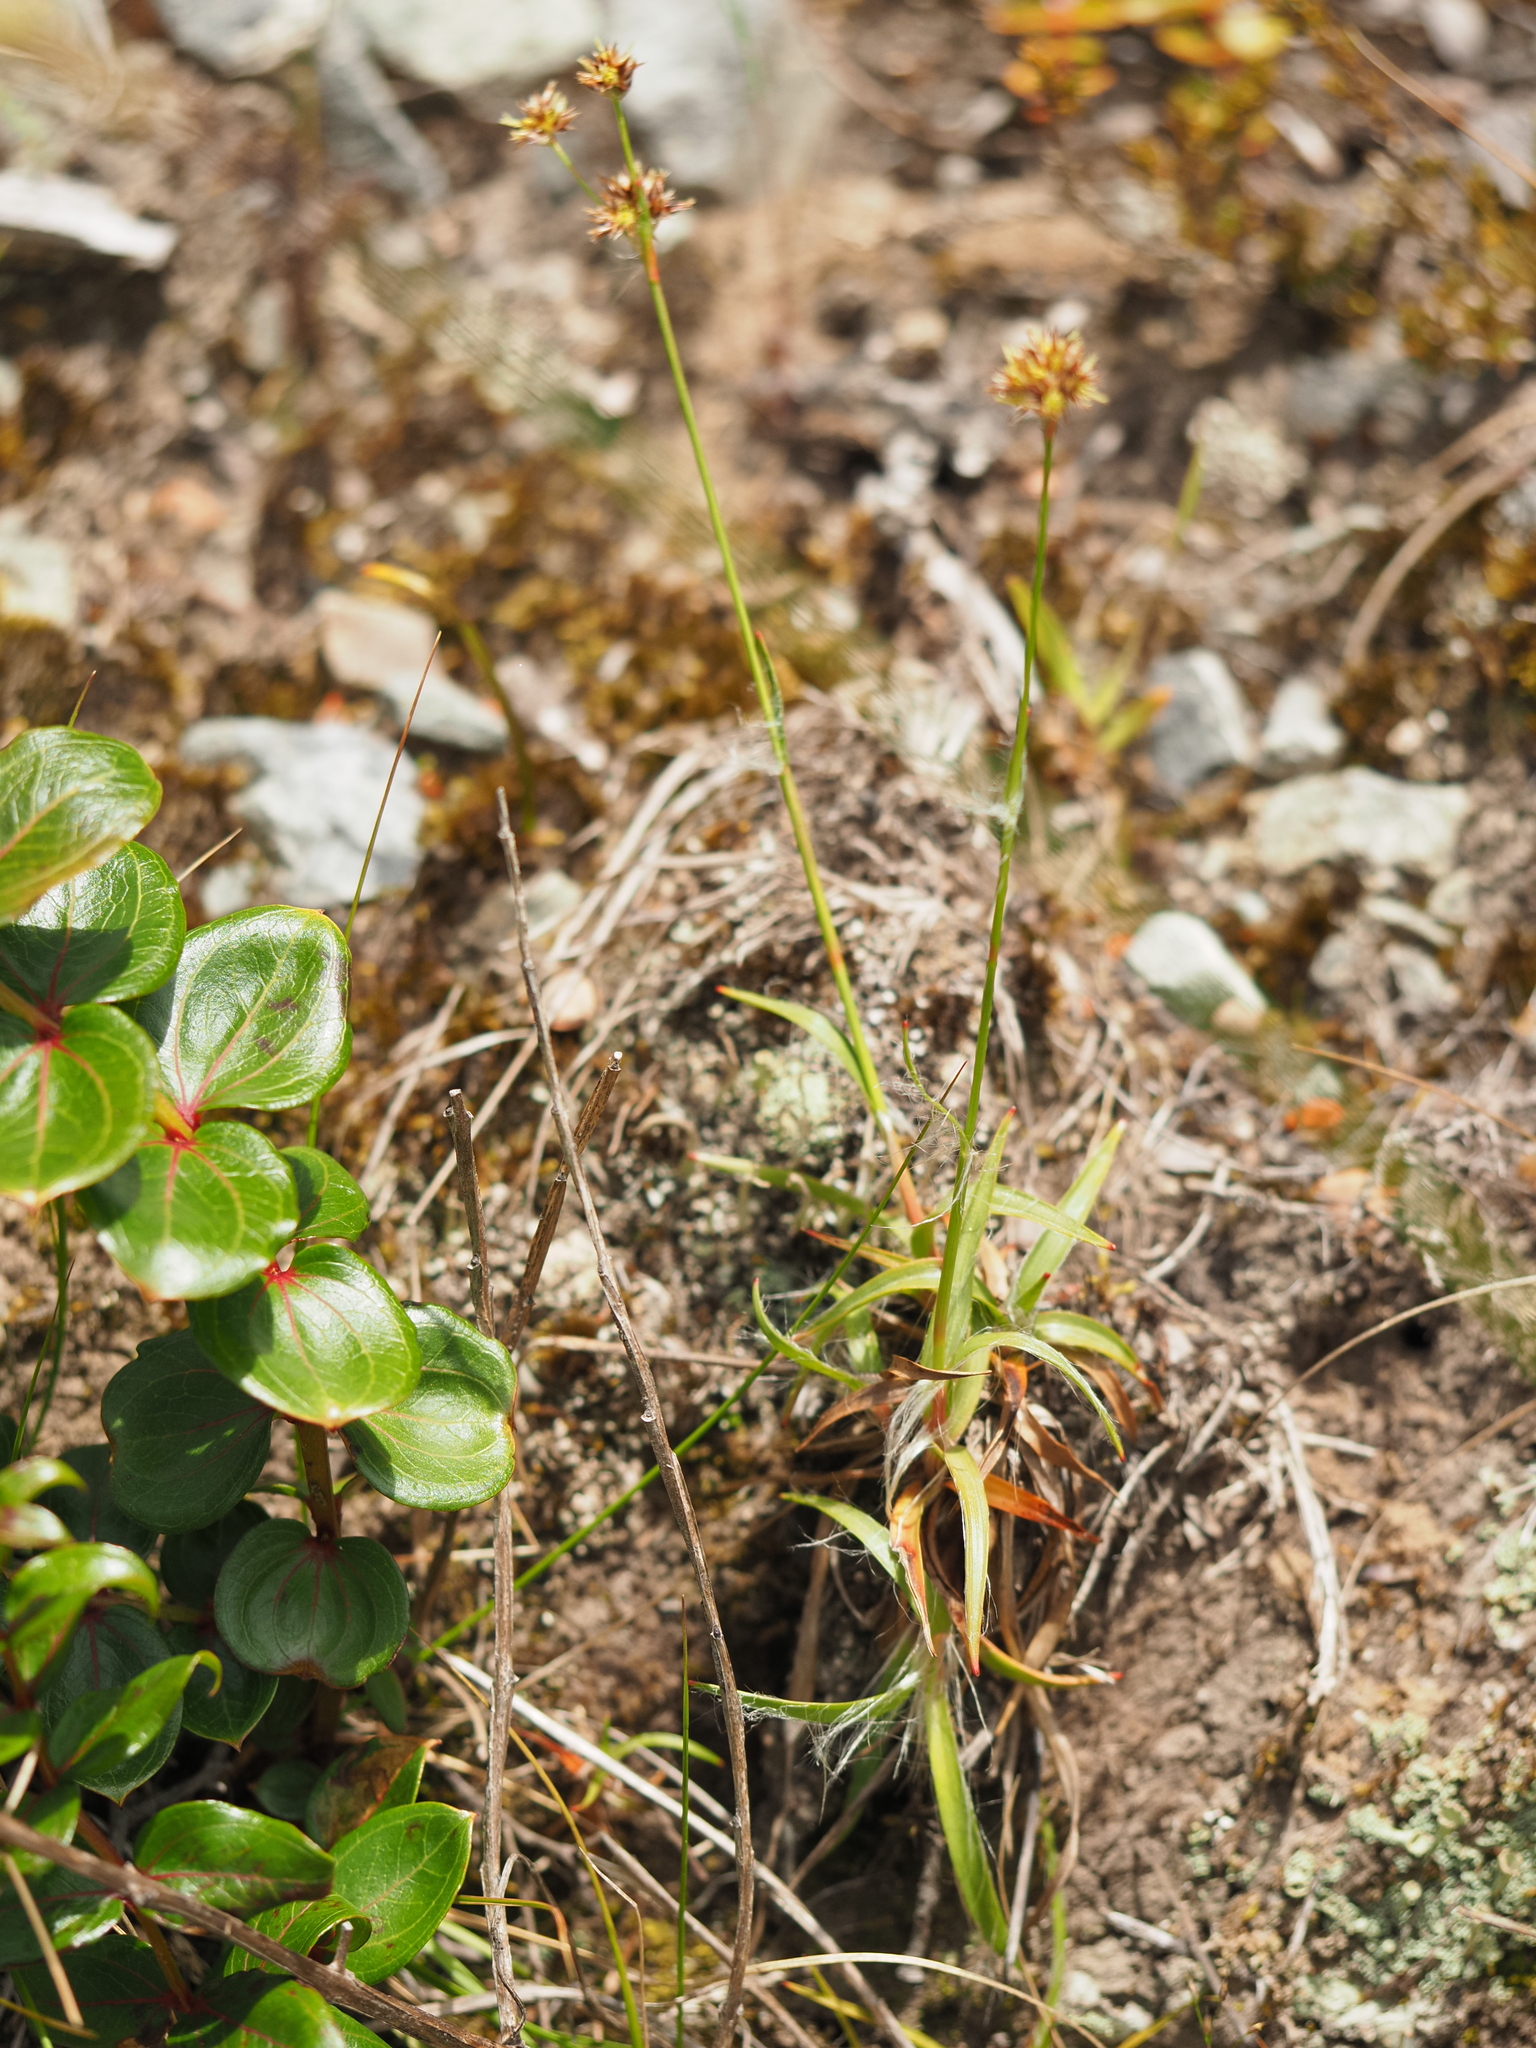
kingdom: Plantae
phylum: Tracheophyta
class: Liliopsida
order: Poales
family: Juncaceae
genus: Luzula
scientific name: Luzula pumila
